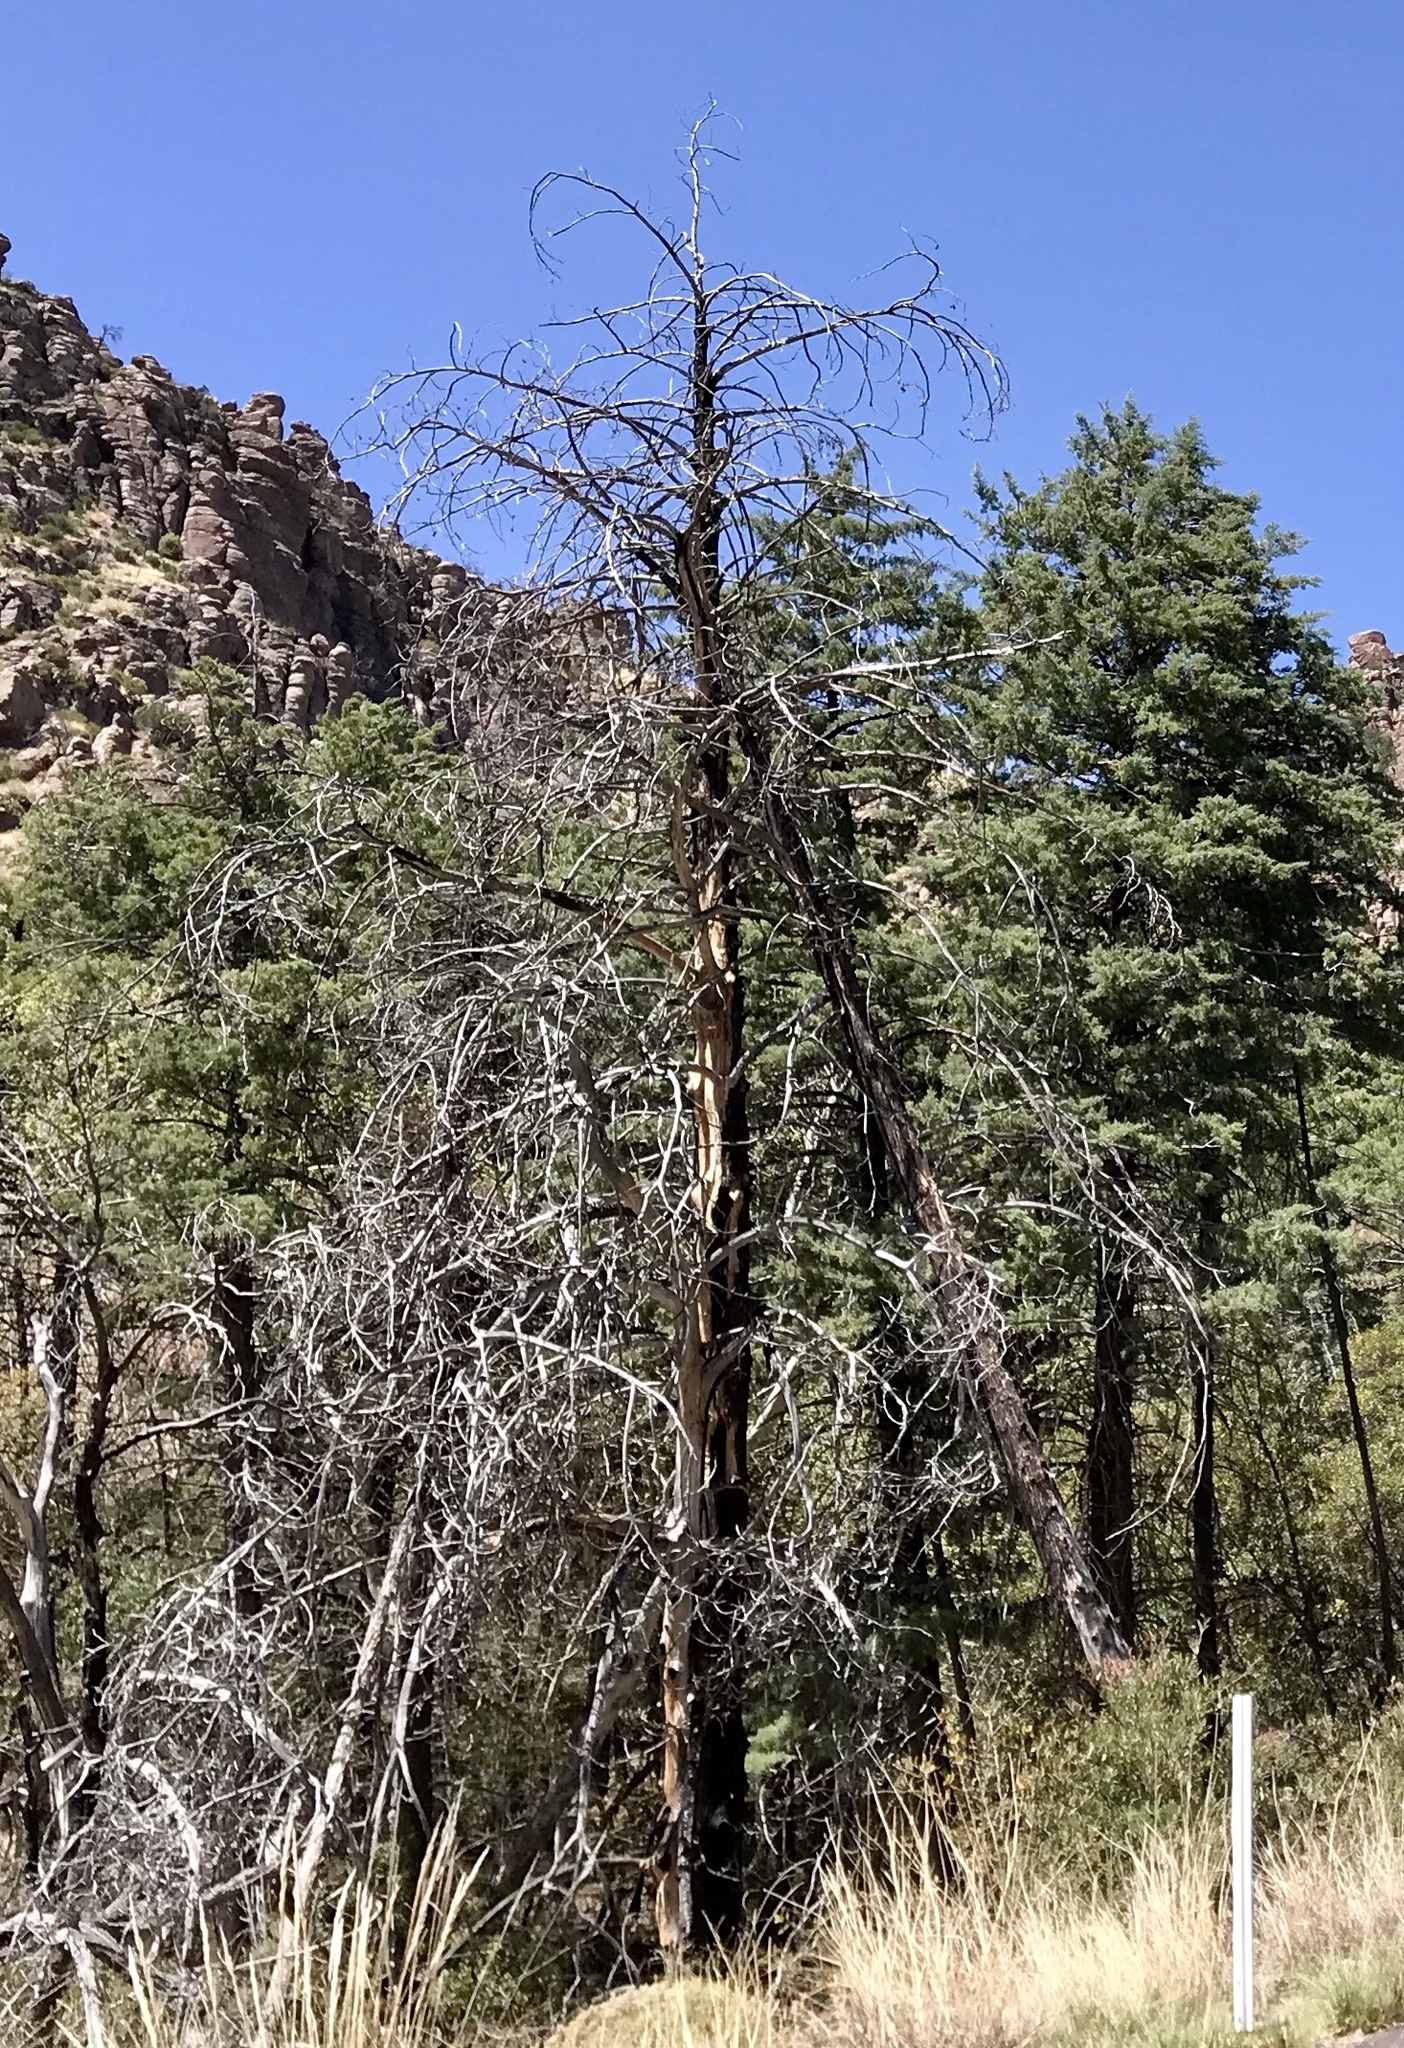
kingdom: Plantae
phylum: Tracheophyta
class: Pinopsida
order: Pinales
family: Cupressaceae
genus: Cupressus
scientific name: Cupressus arizonica
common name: Arizona cypress
